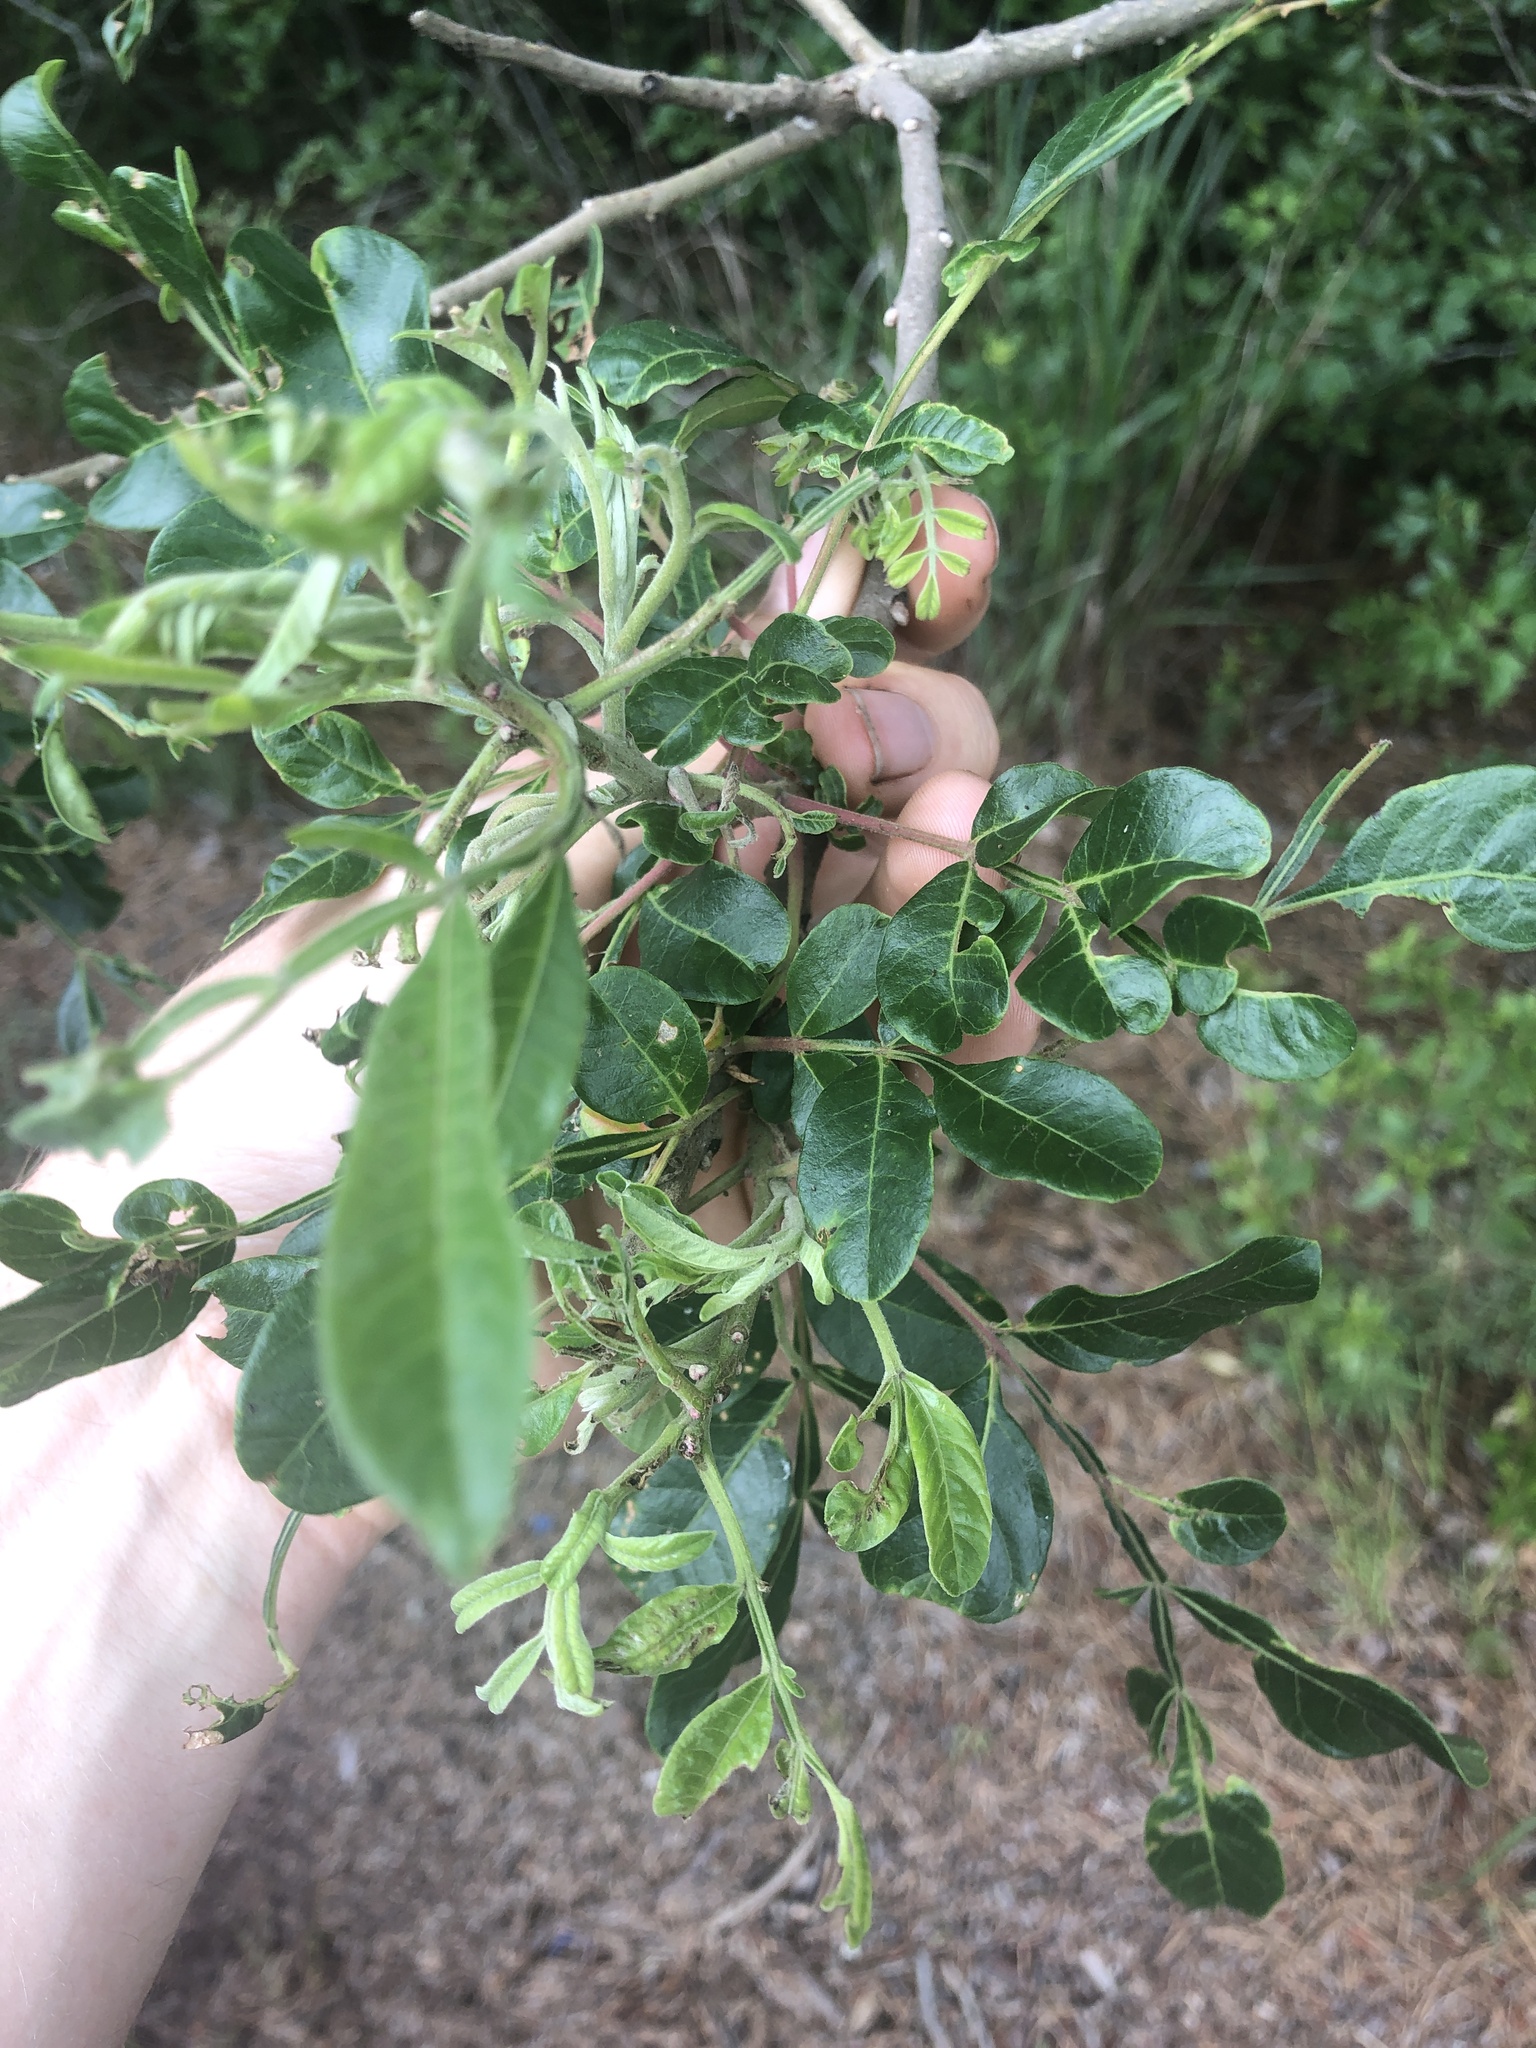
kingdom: Plantae
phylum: Tracheophyta
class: Magnoliopsida
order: Sapindales
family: Anacardiaceae
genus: Rhus
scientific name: Rhus copallina
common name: Shining sumac
